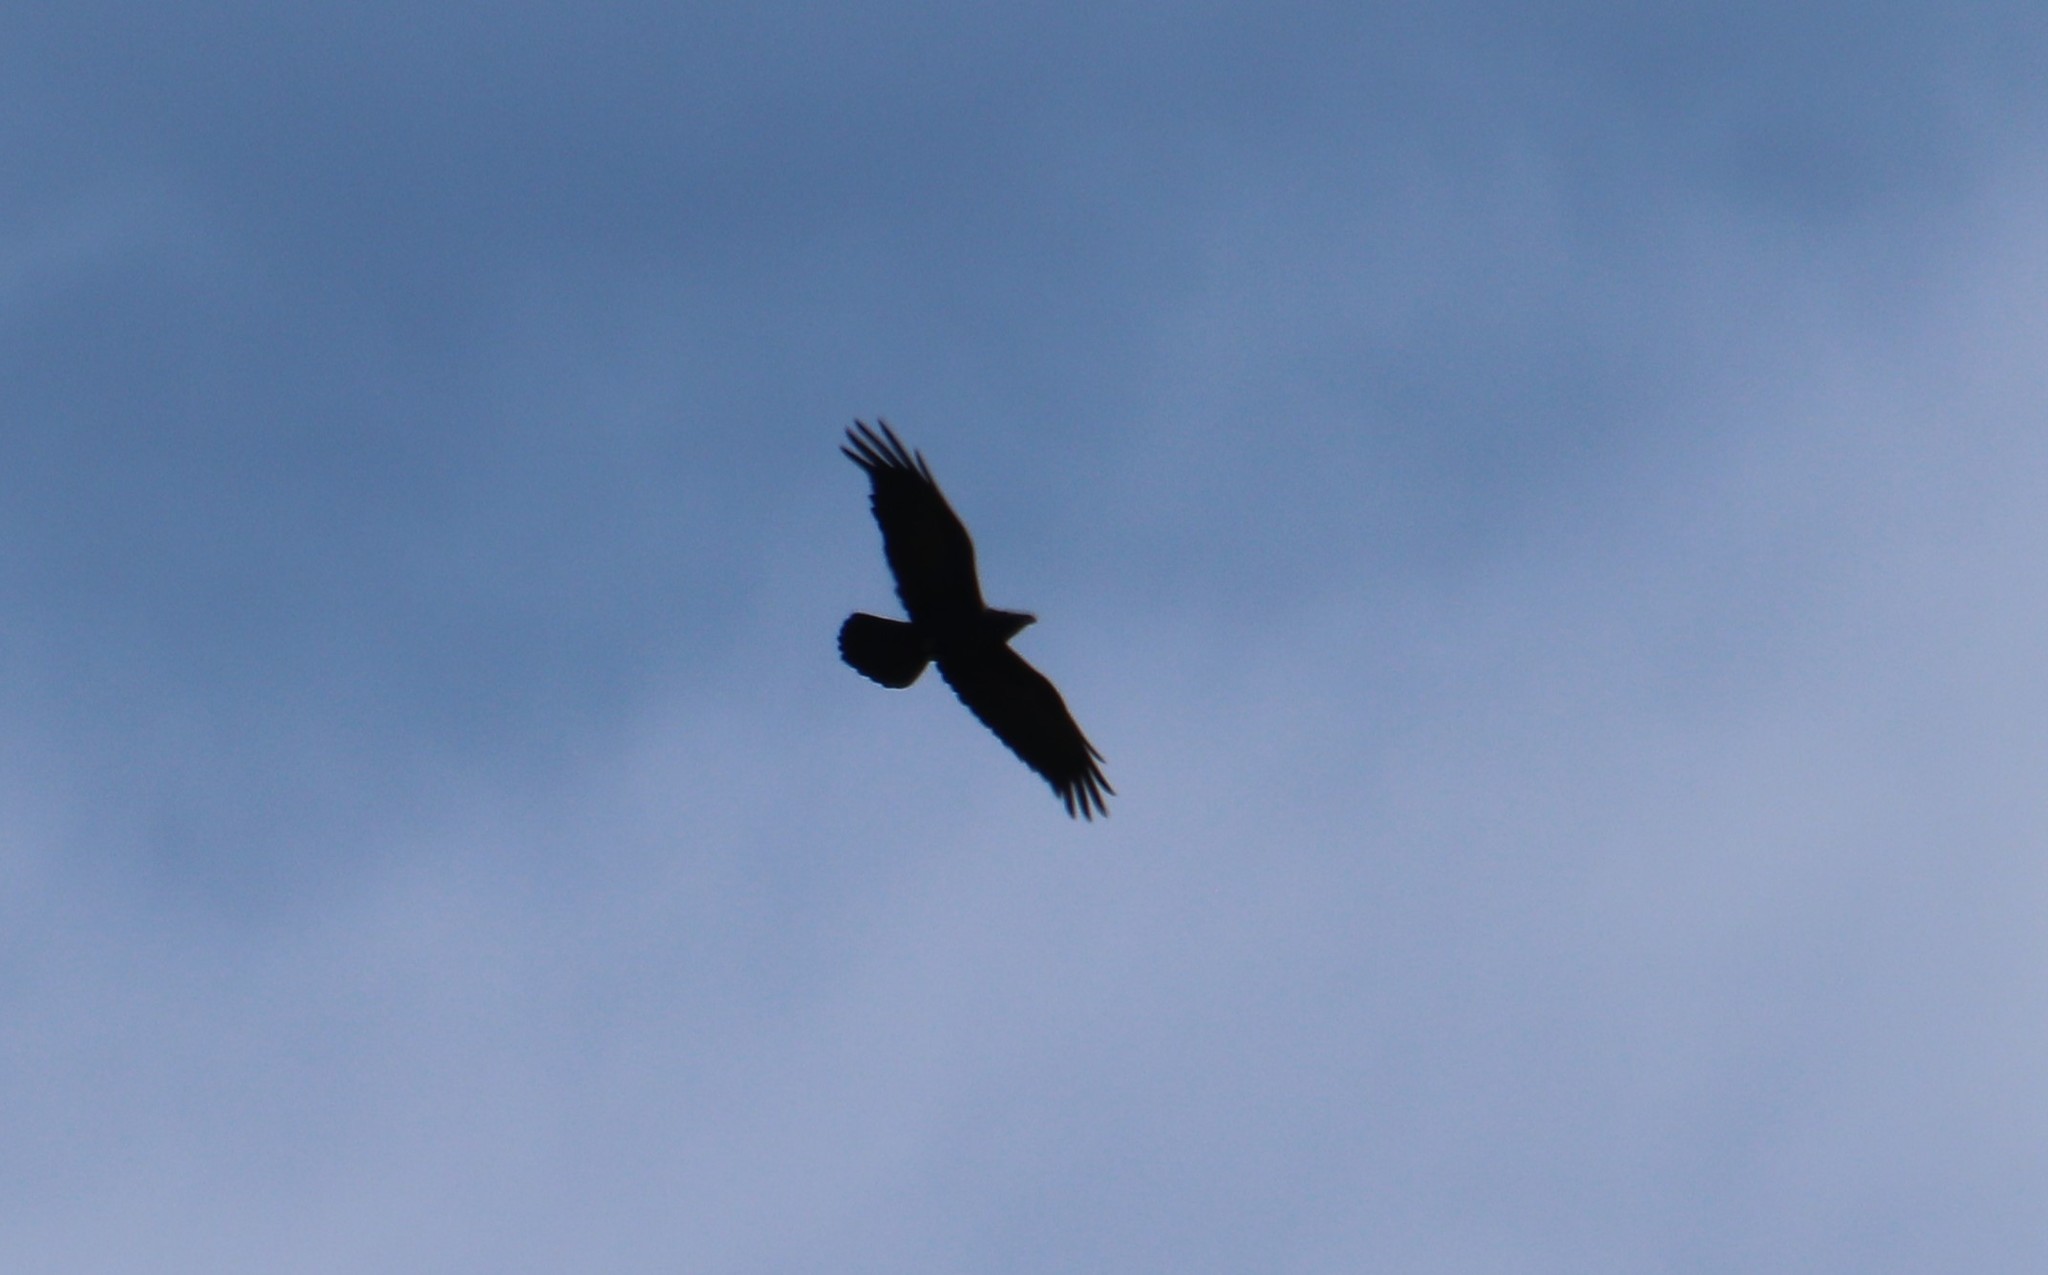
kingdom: Animalia
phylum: Chordata
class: Aves
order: Passeriformes
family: Corvidae
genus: Corvus
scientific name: Corvus corax
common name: Common raven
